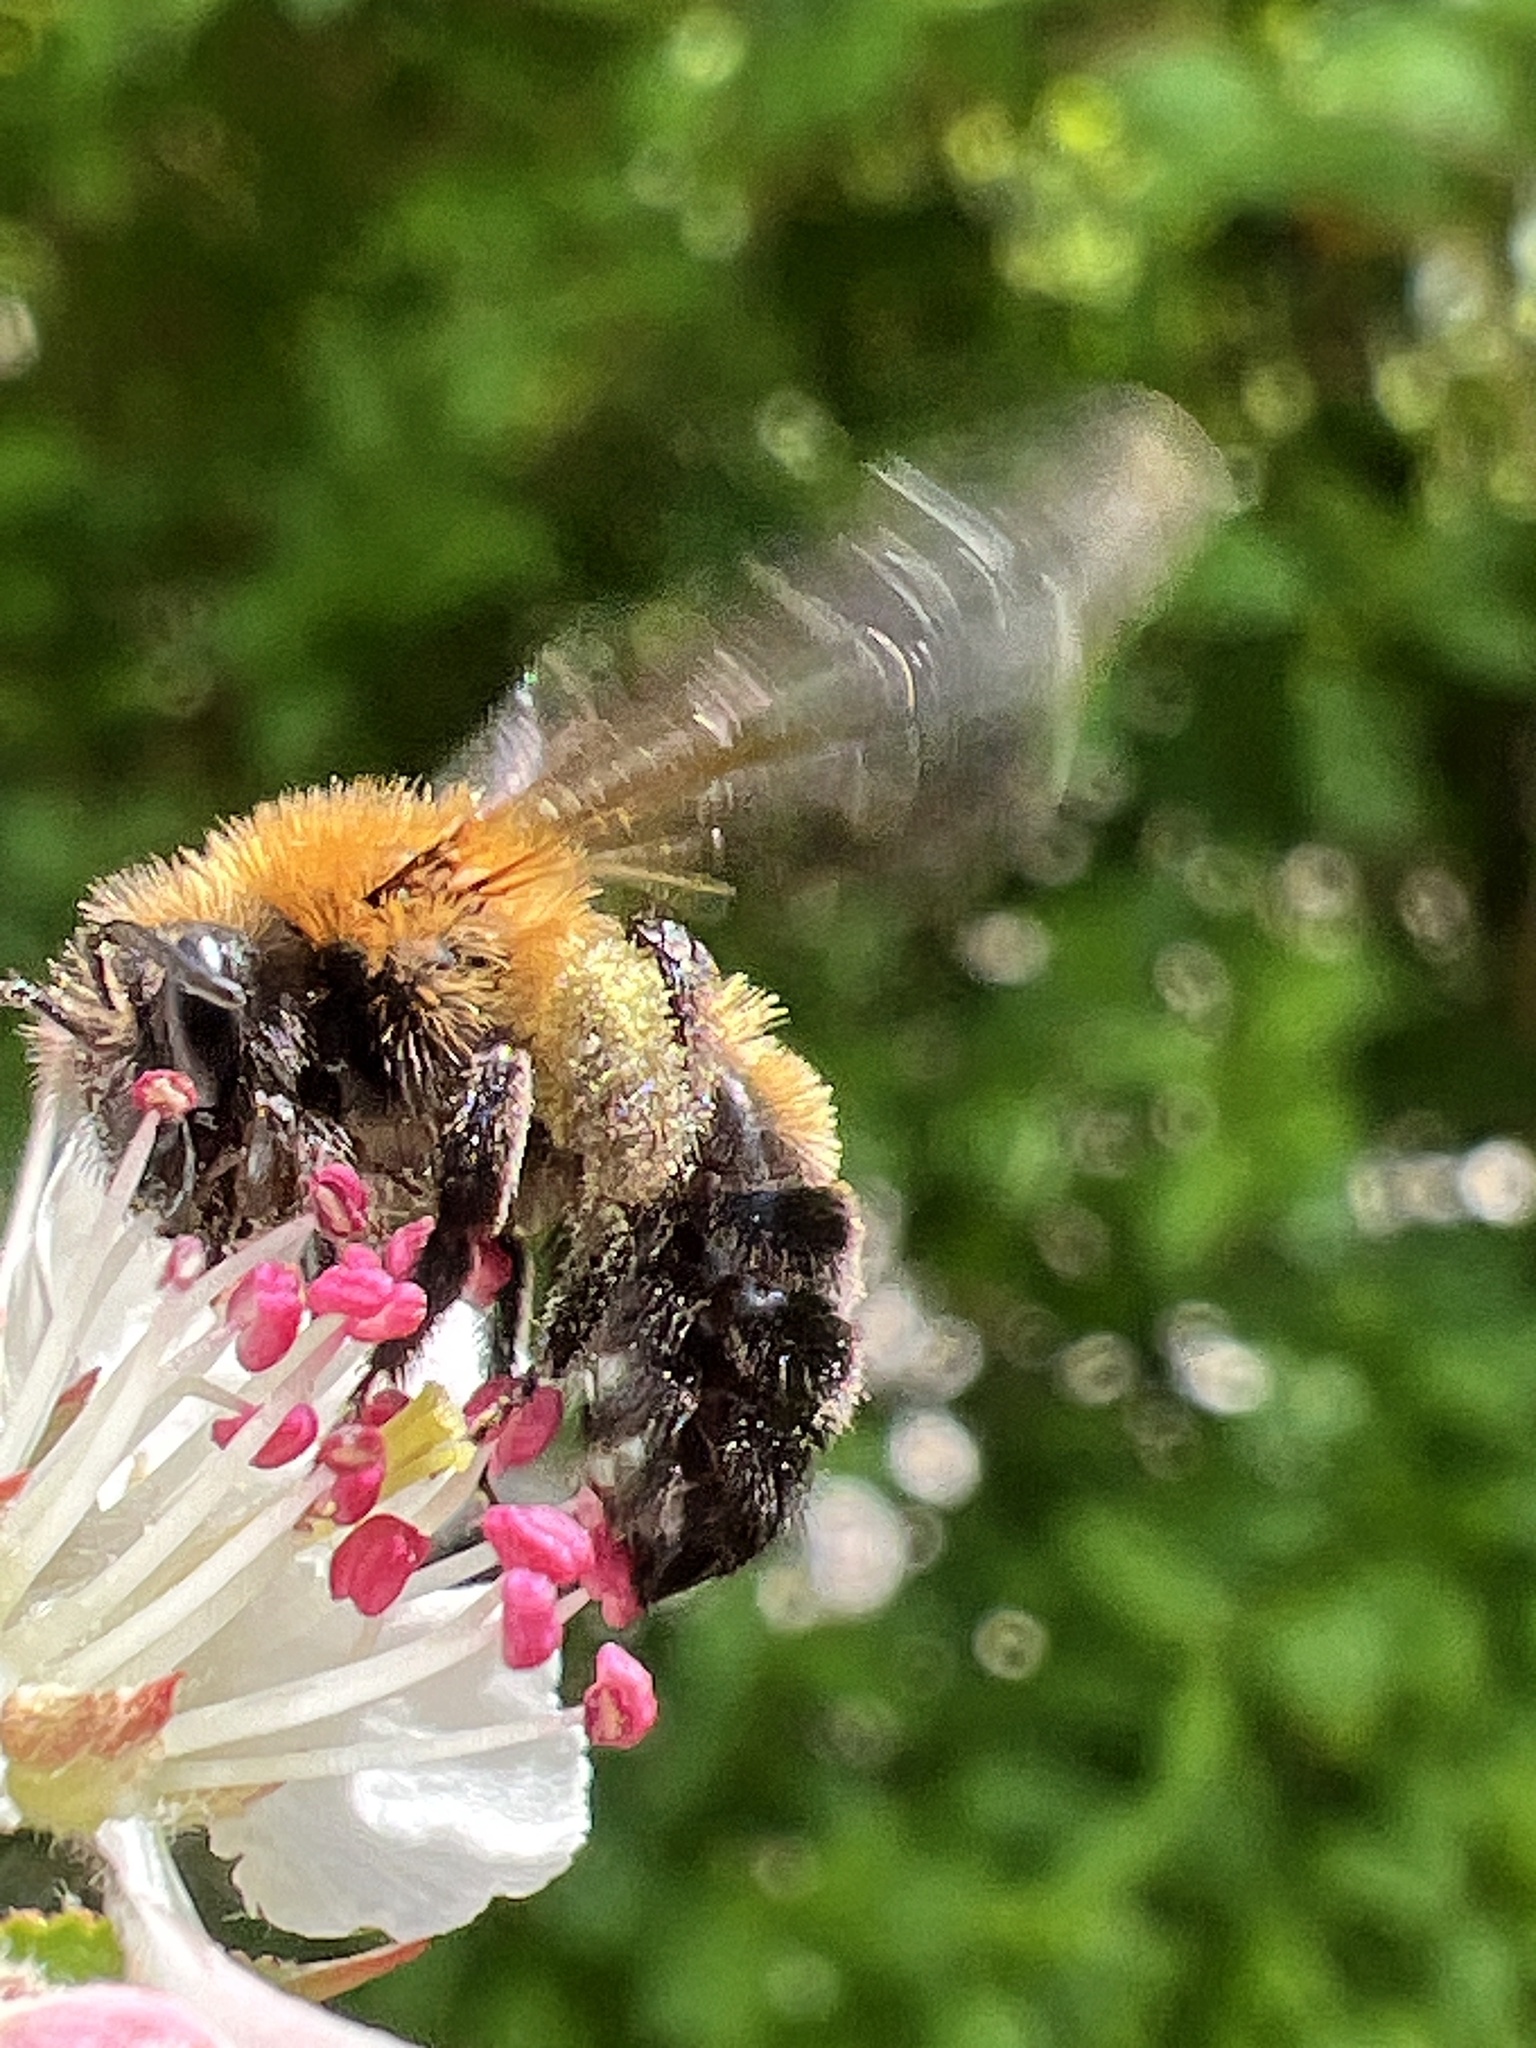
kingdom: Animalia
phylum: Arthropoda
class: Insecta
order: Hymenoptera
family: Andrenidae
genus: Andrena
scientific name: Andrena milwaukeensis
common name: Milwaukee mining bee
